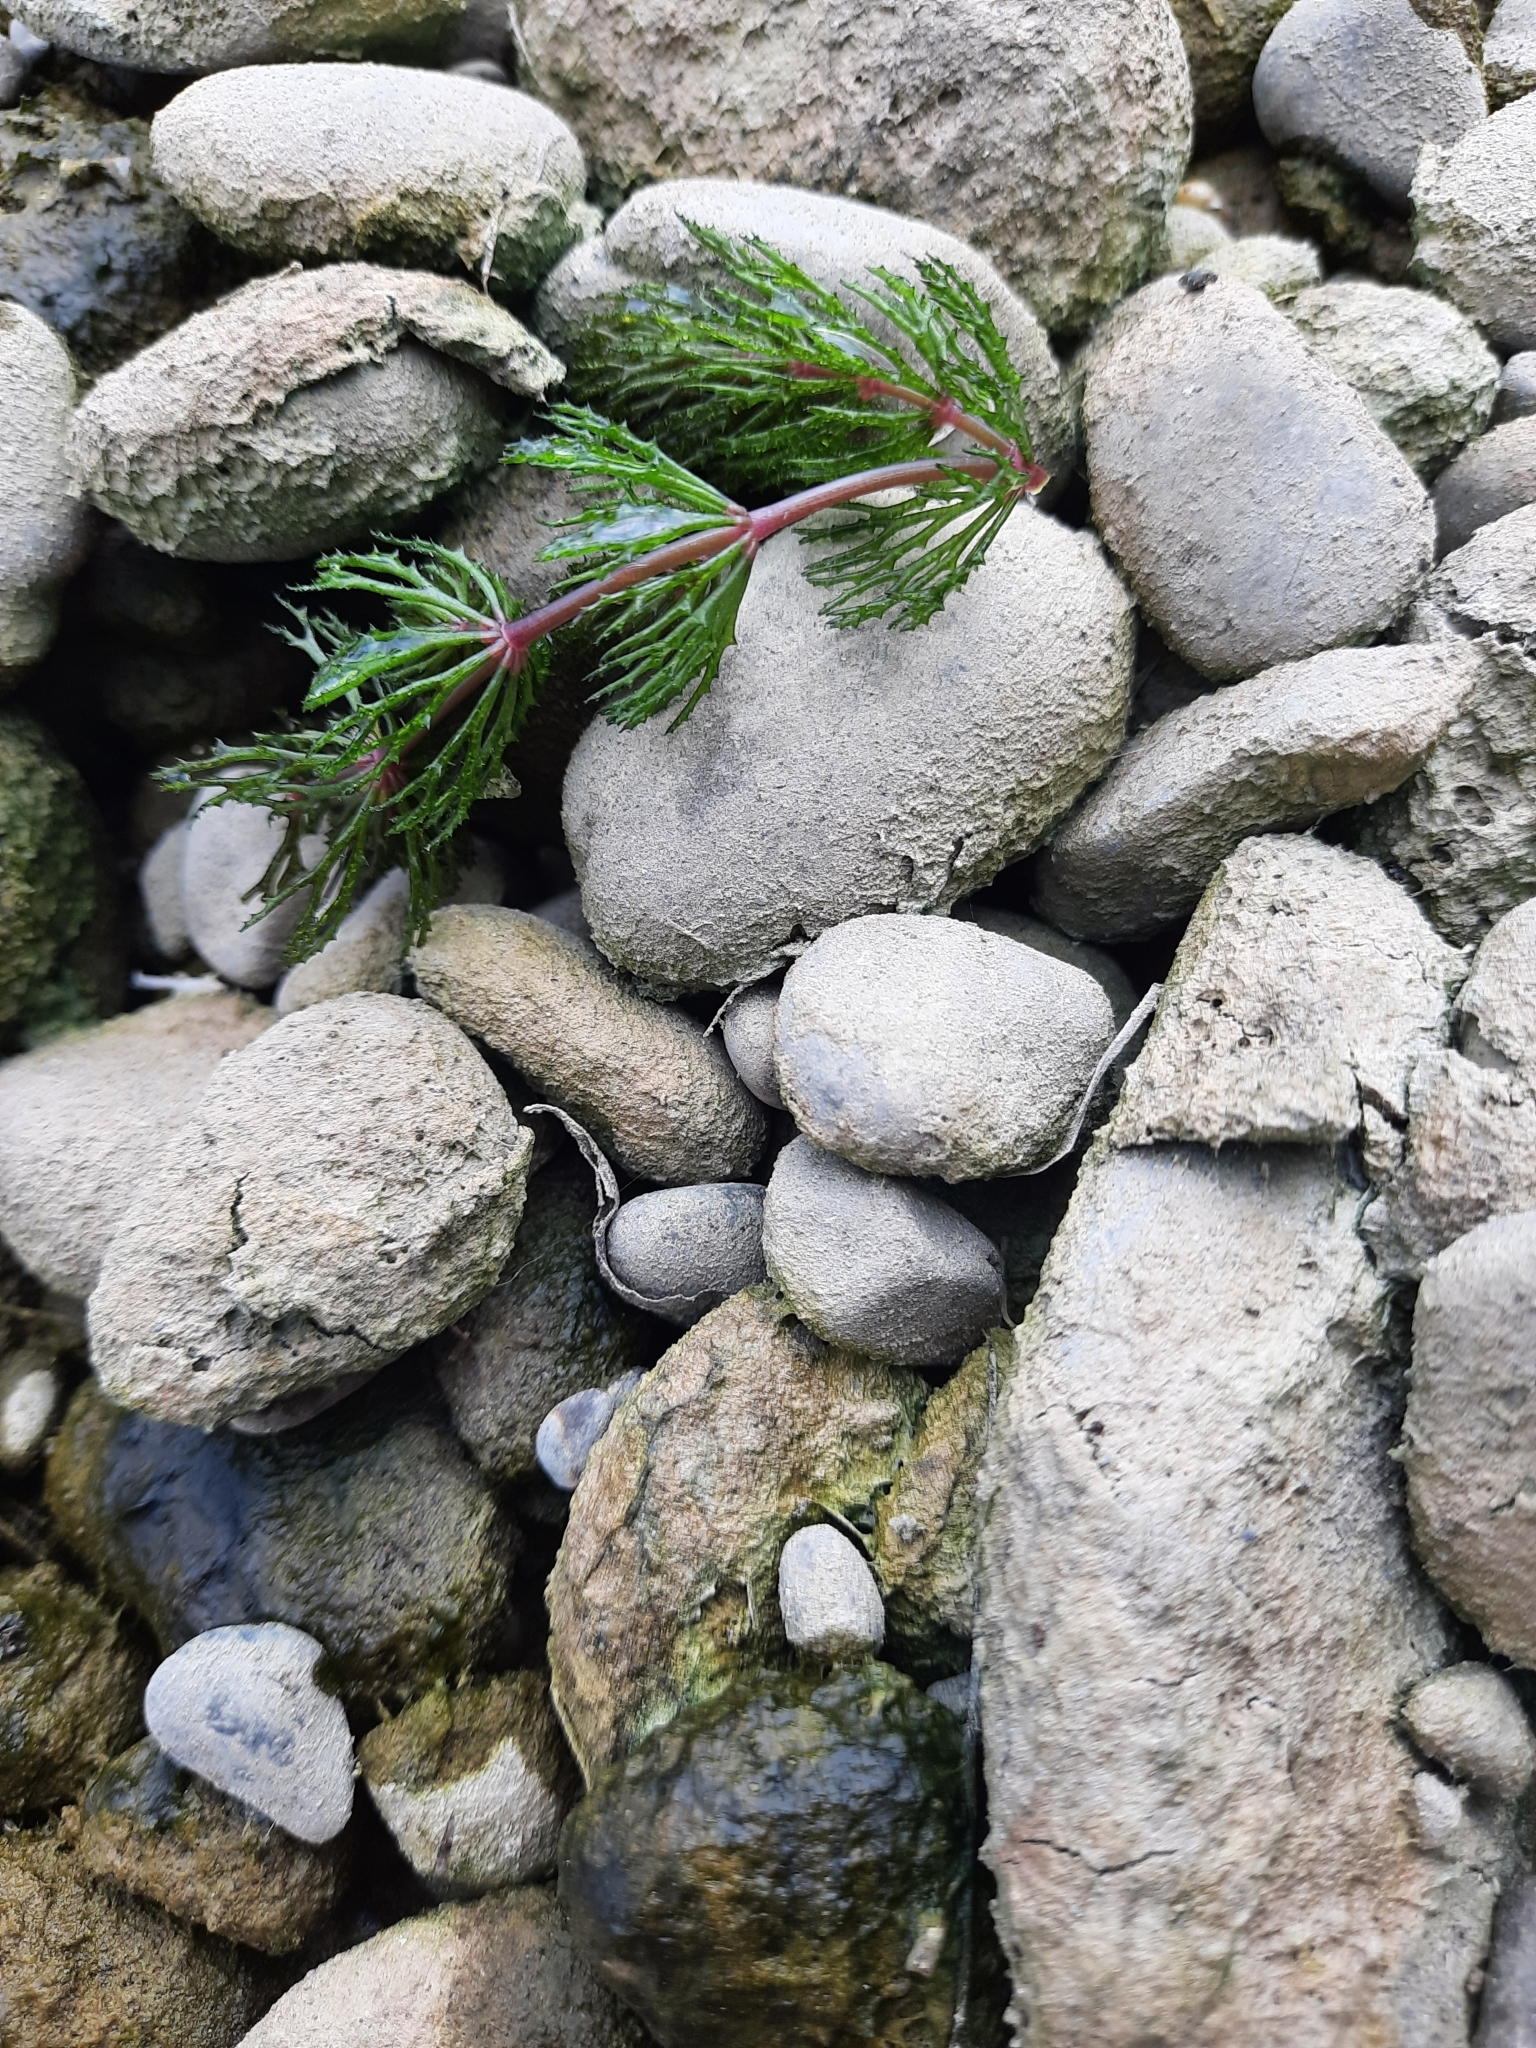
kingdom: Plantae
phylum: Tracheophyta
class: Magnoliopsida
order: Ceratophyllales
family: Ceratophyllaceae
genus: Ceratophyllum
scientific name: Ceratophyllum demersum
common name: Rigid hornwort
